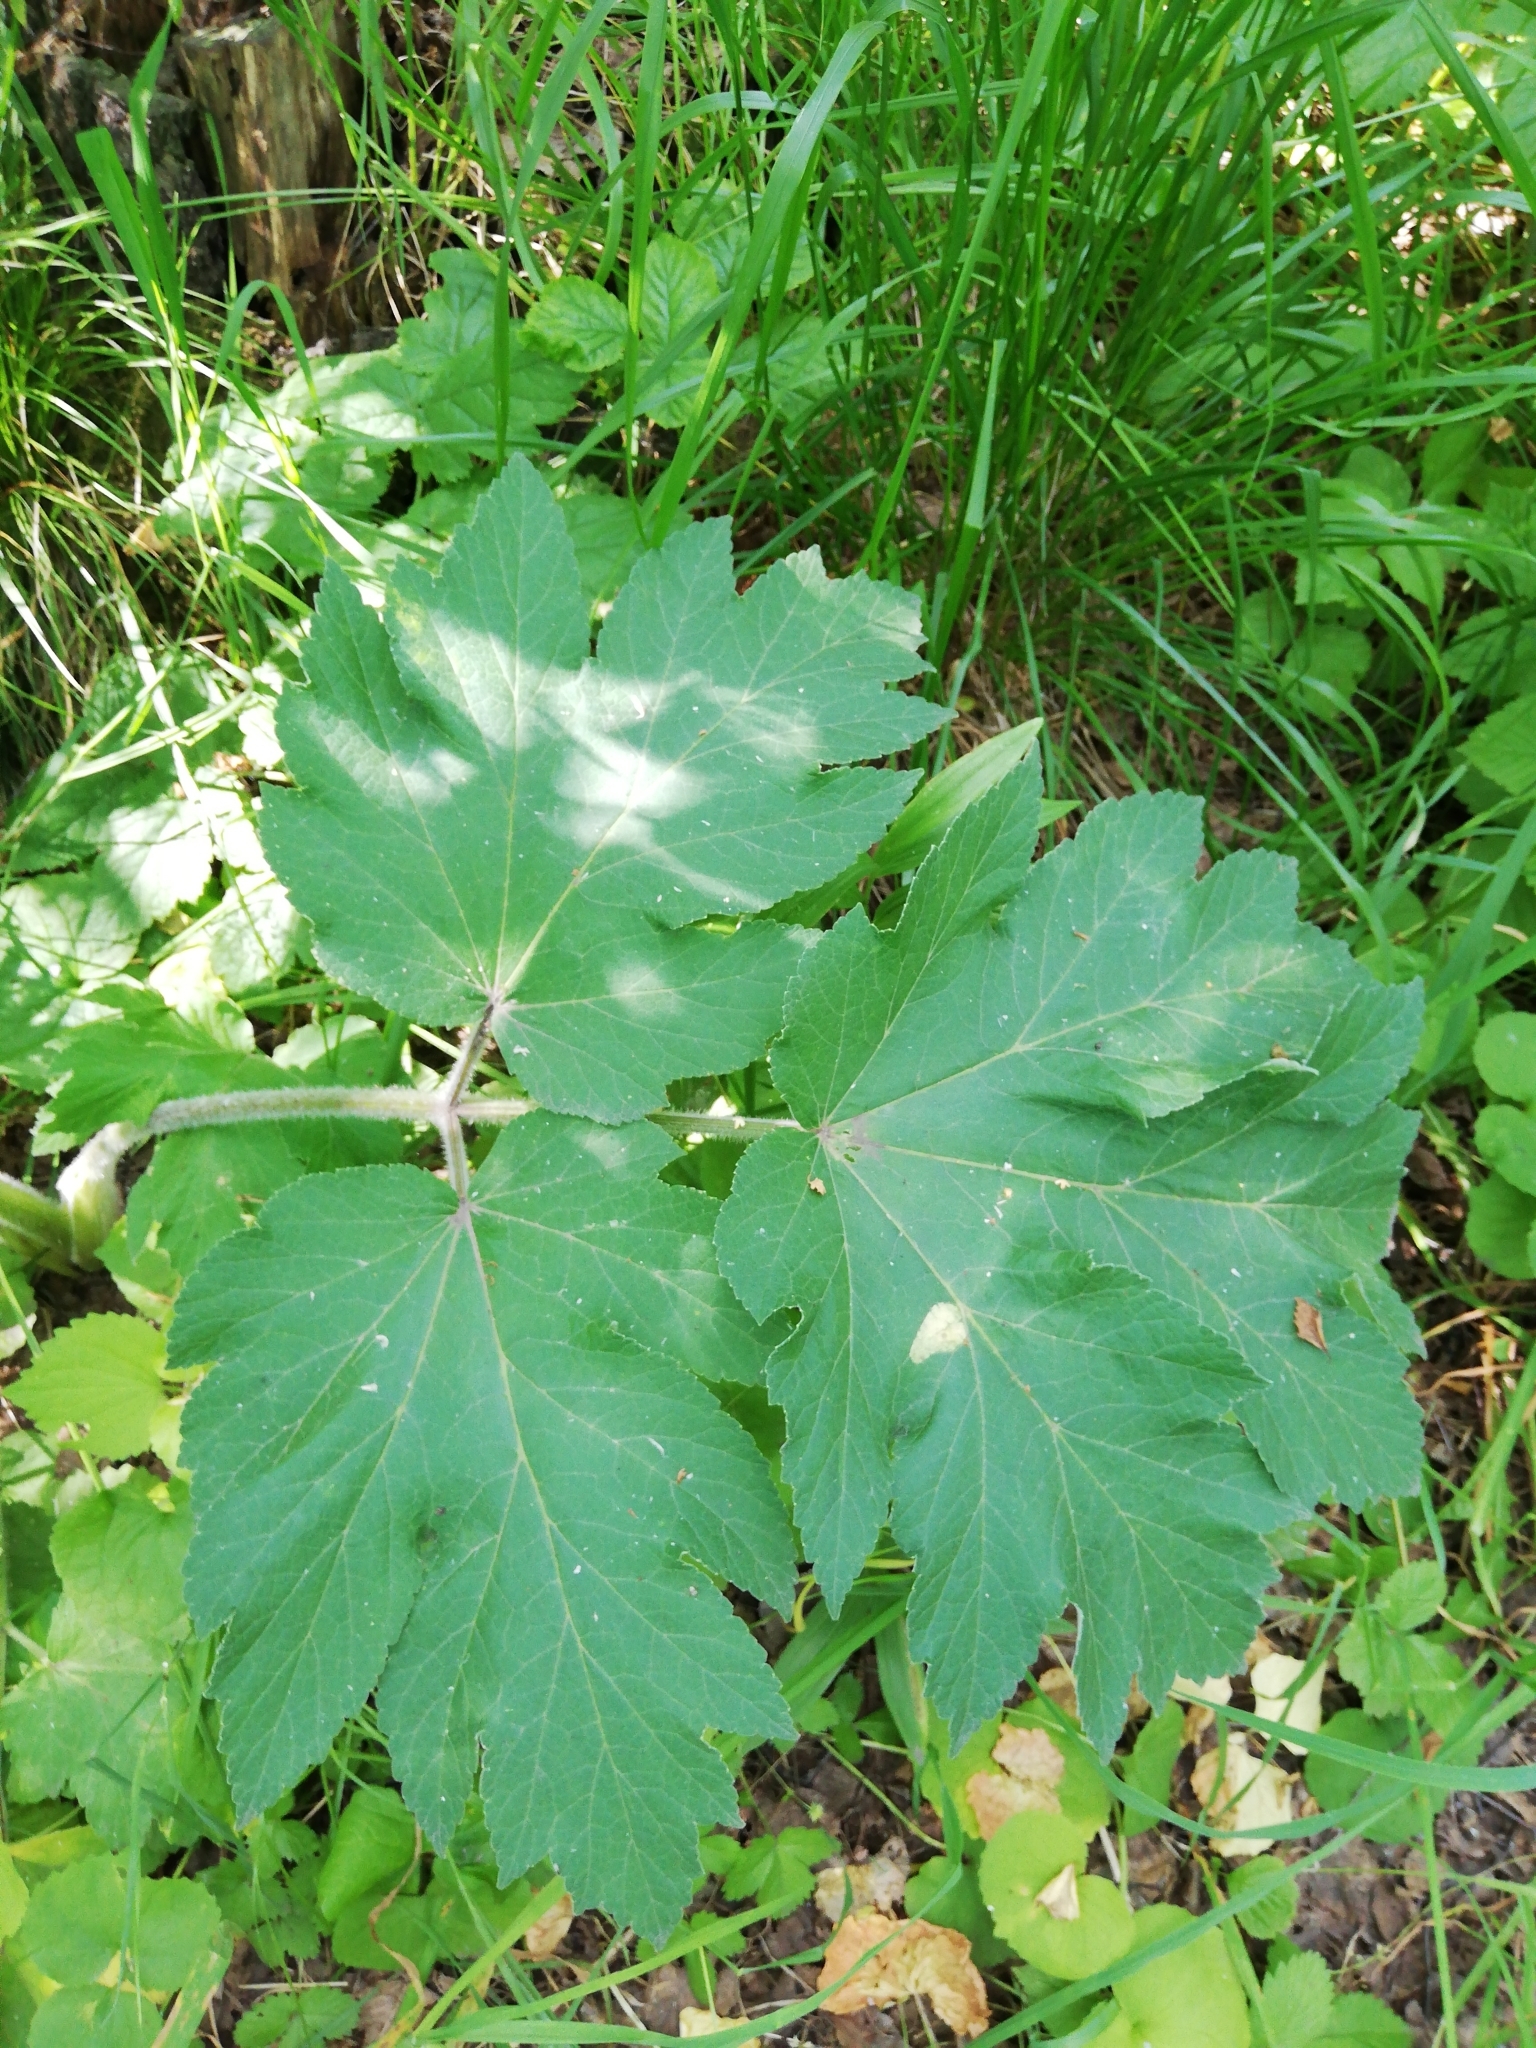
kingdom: Plantae
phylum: Tracheophyta
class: Magnoliopsida
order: Apiales
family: Apiaceae
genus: Heracleum
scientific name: Heracleum dissectum
